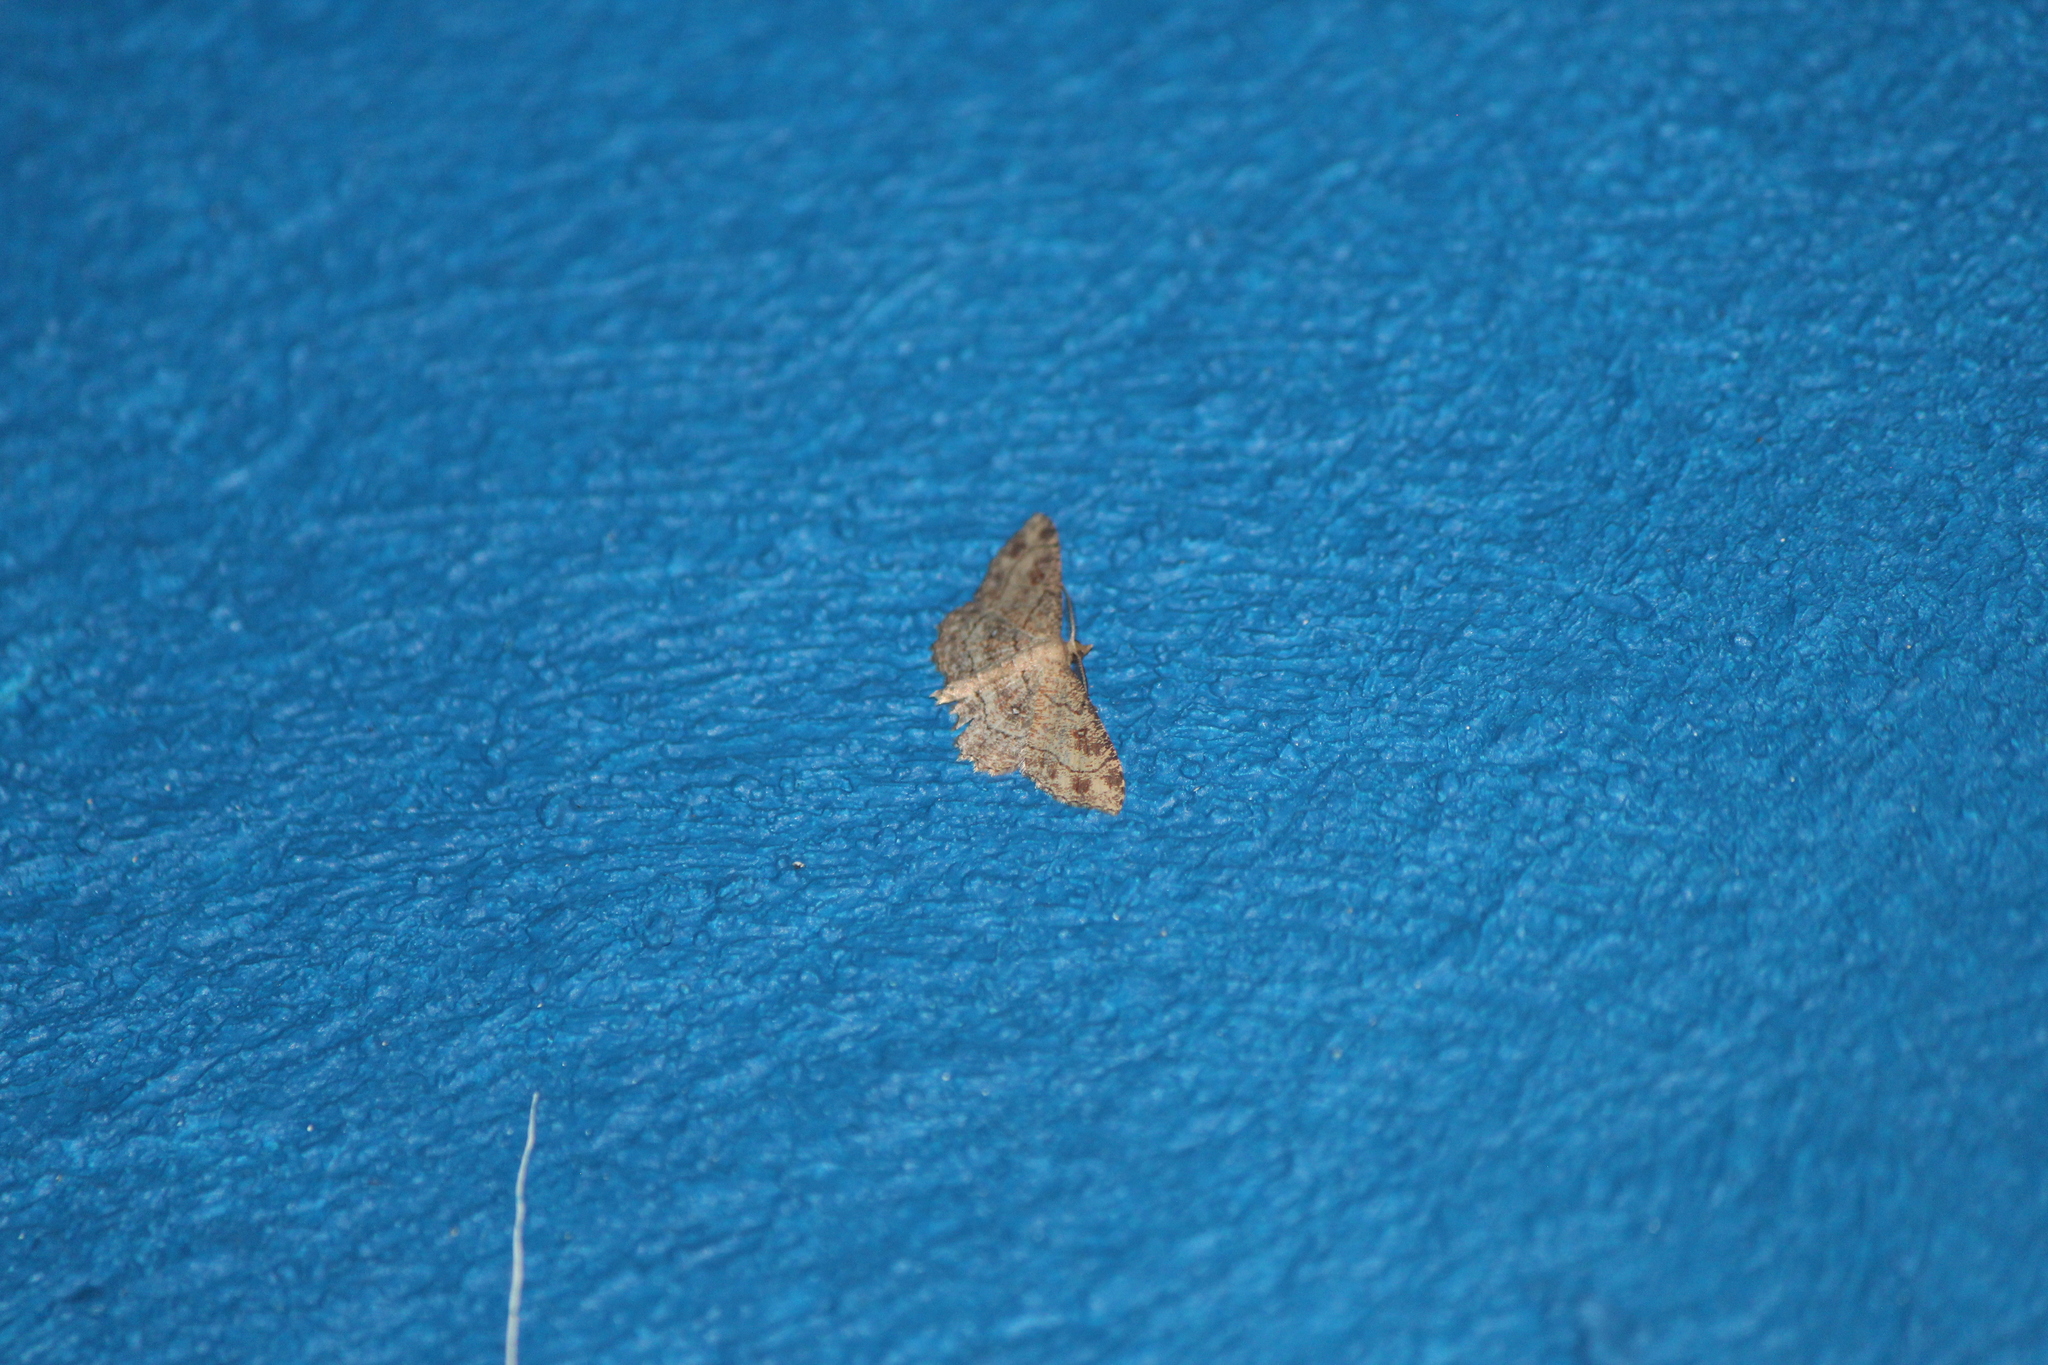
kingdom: Animalia
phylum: Arthropoda
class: Insecta
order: Lepidoptera
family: Geometridae
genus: Cyclophora
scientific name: Cyclophora nanaria
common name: Cankerworm
